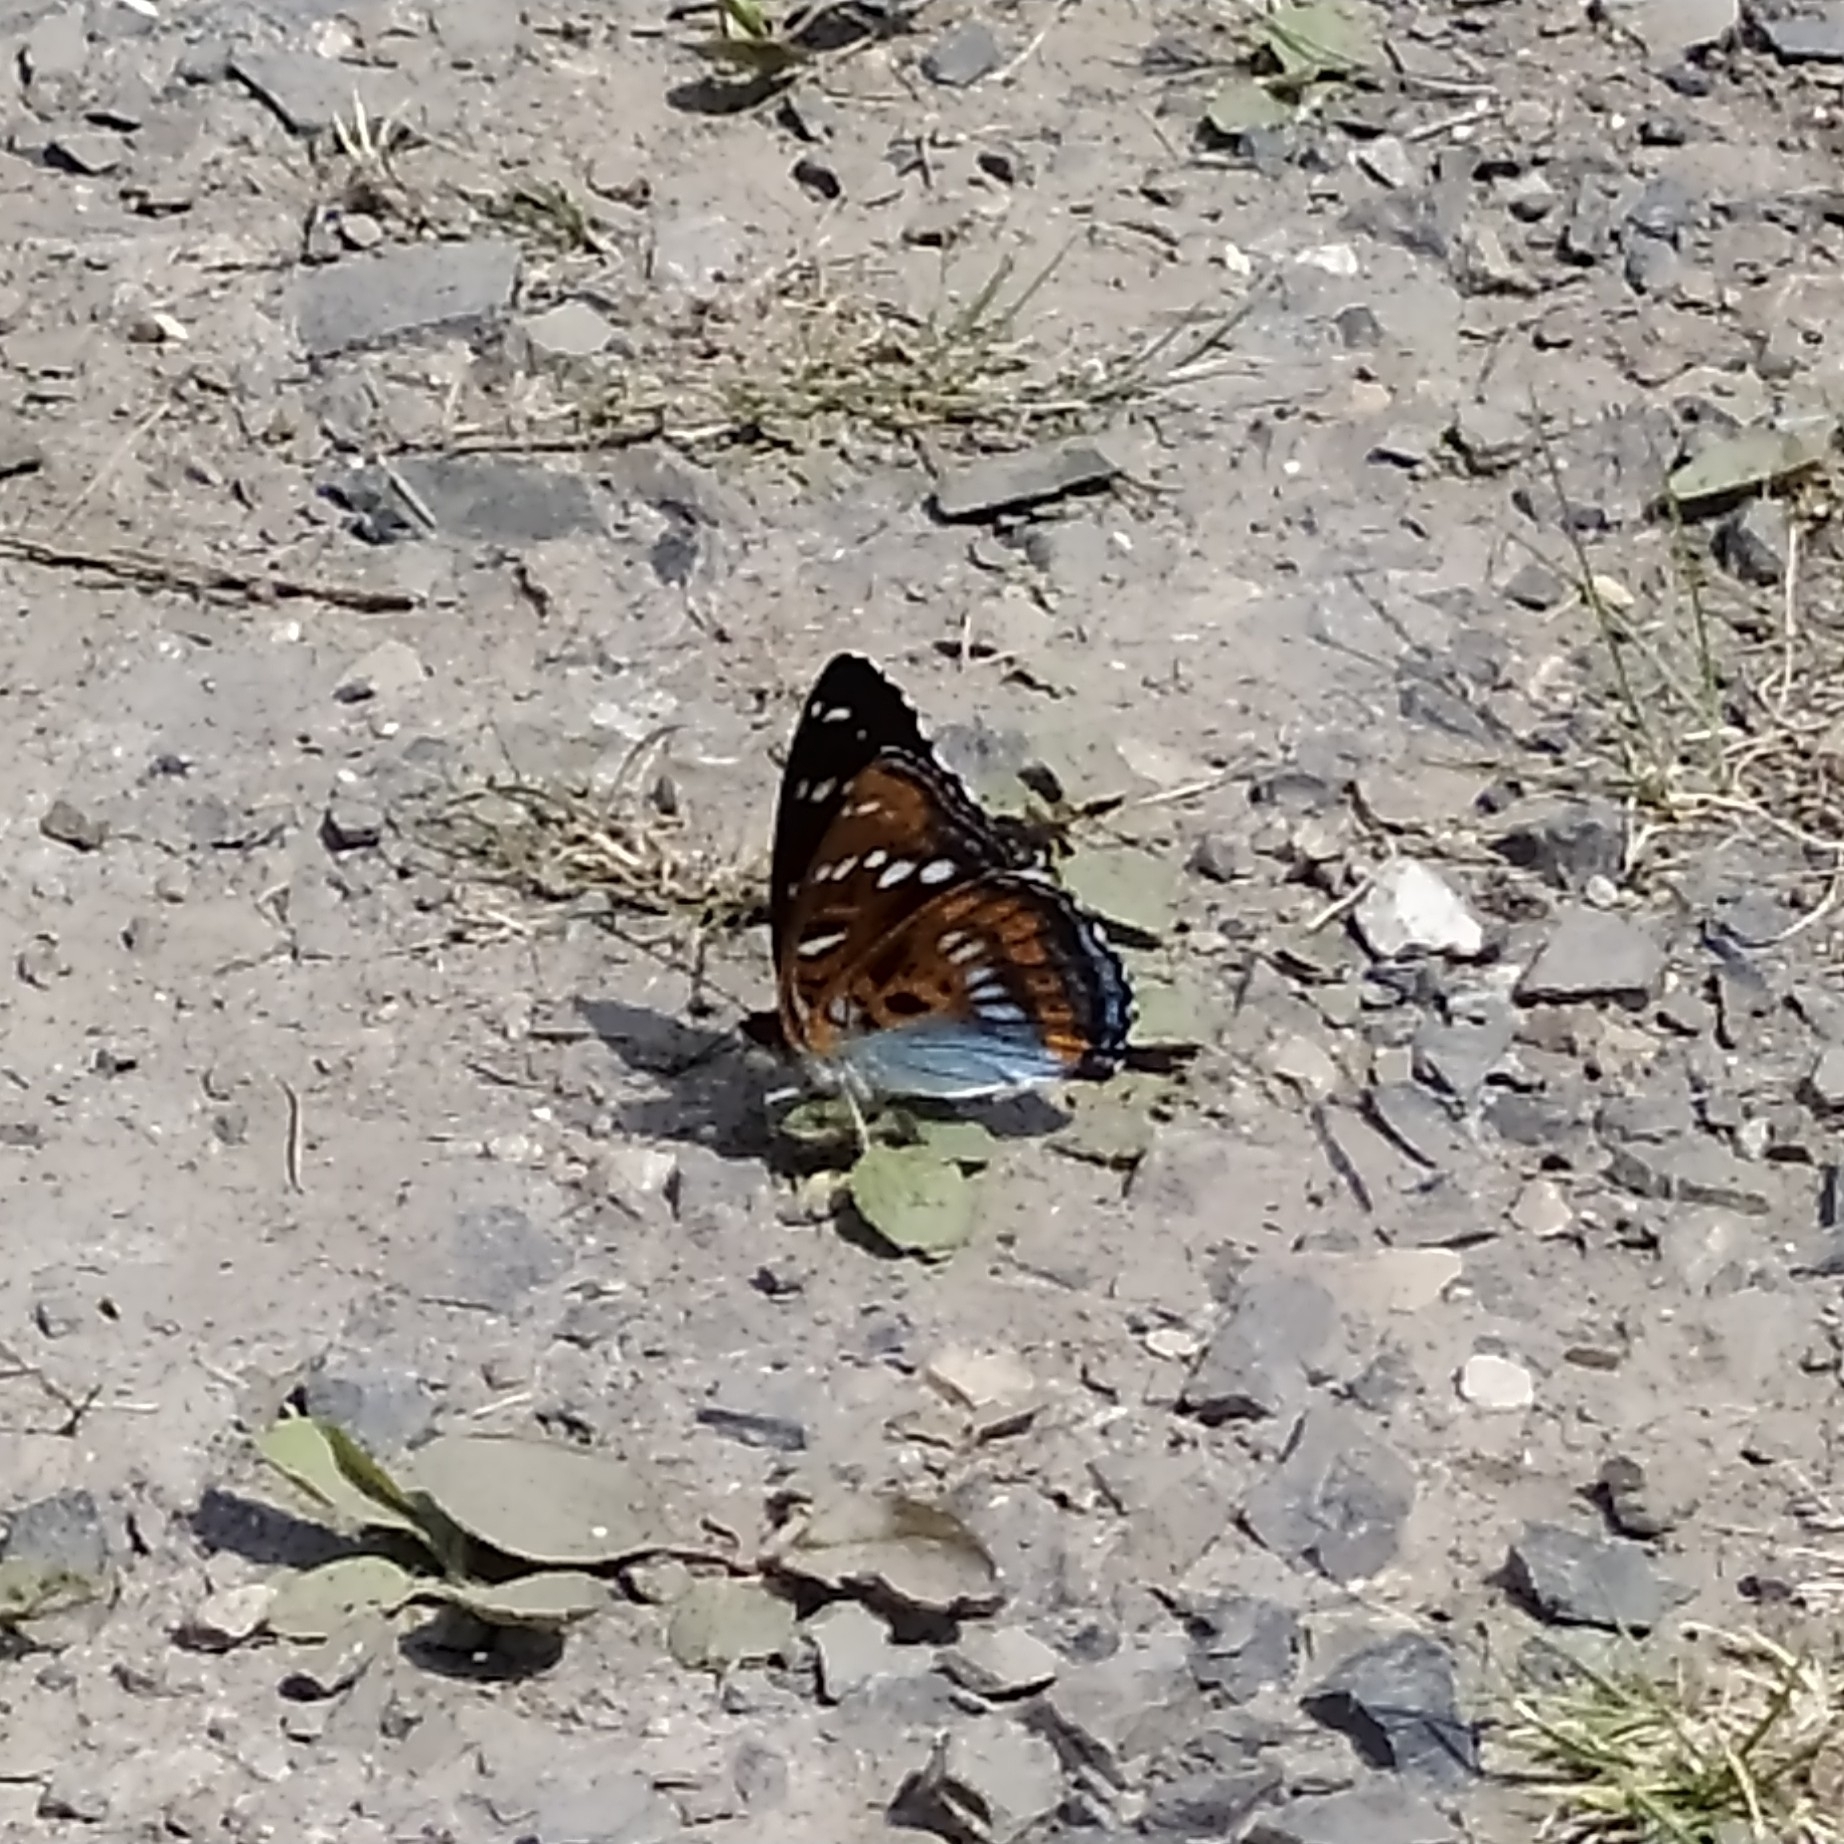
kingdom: Animalia
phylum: Arthropoda
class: Insecta
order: Lepidoptera
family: Nymphalidae
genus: Limenitis
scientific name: Limenitis populi
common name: Poplar admiral
